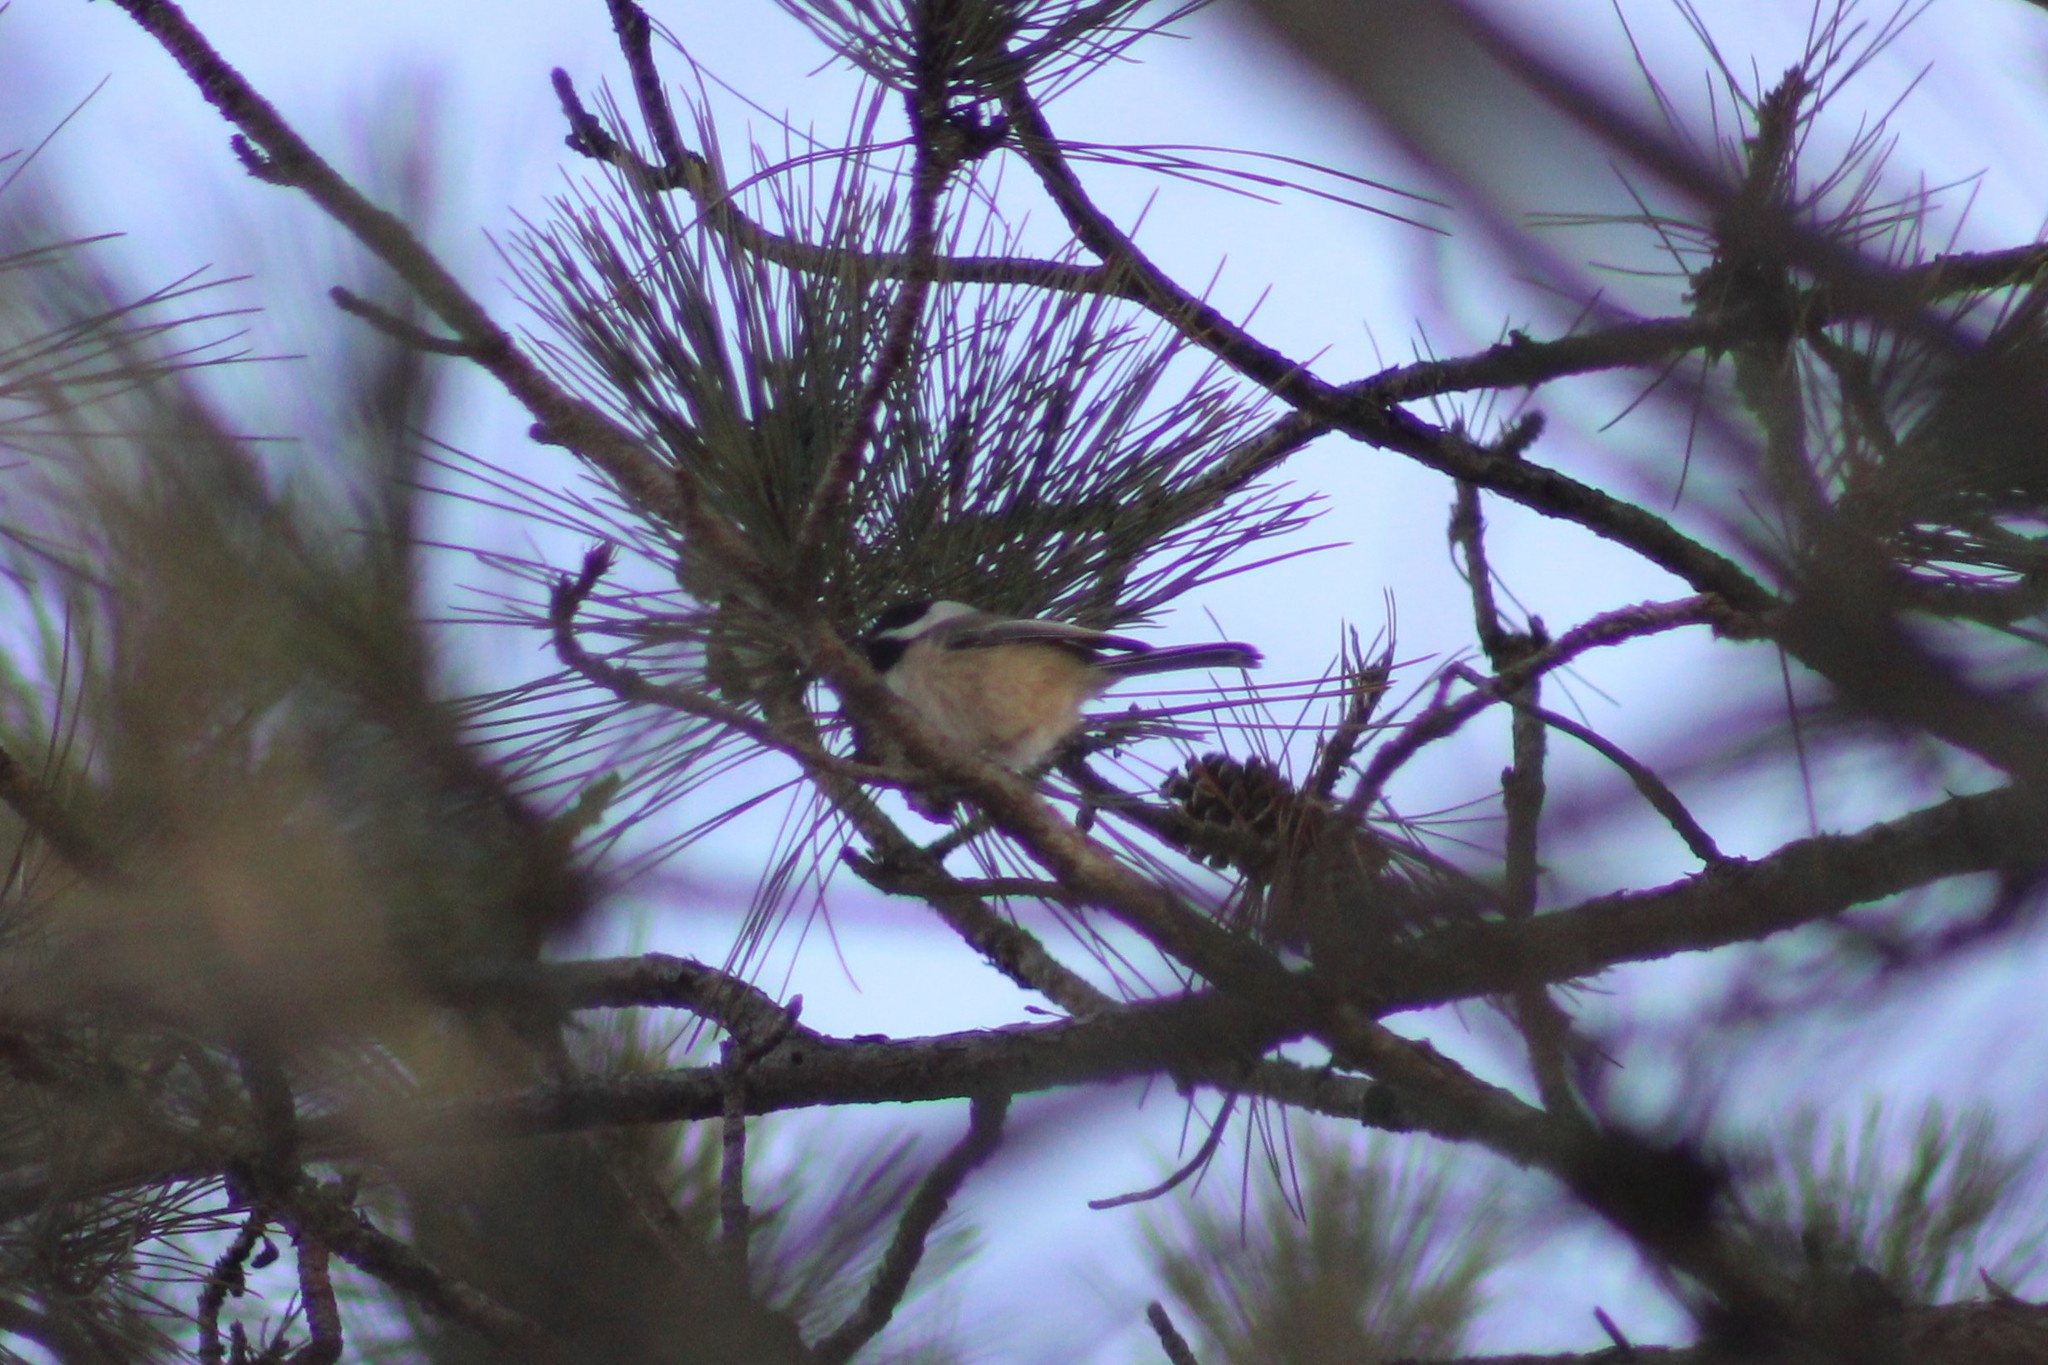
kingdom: Animalia
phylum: Chordata
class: Aves
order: Passeriformes
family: Paridae
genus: Poecile
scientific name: Poecile atricapillus
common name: Black-capped chickadee
